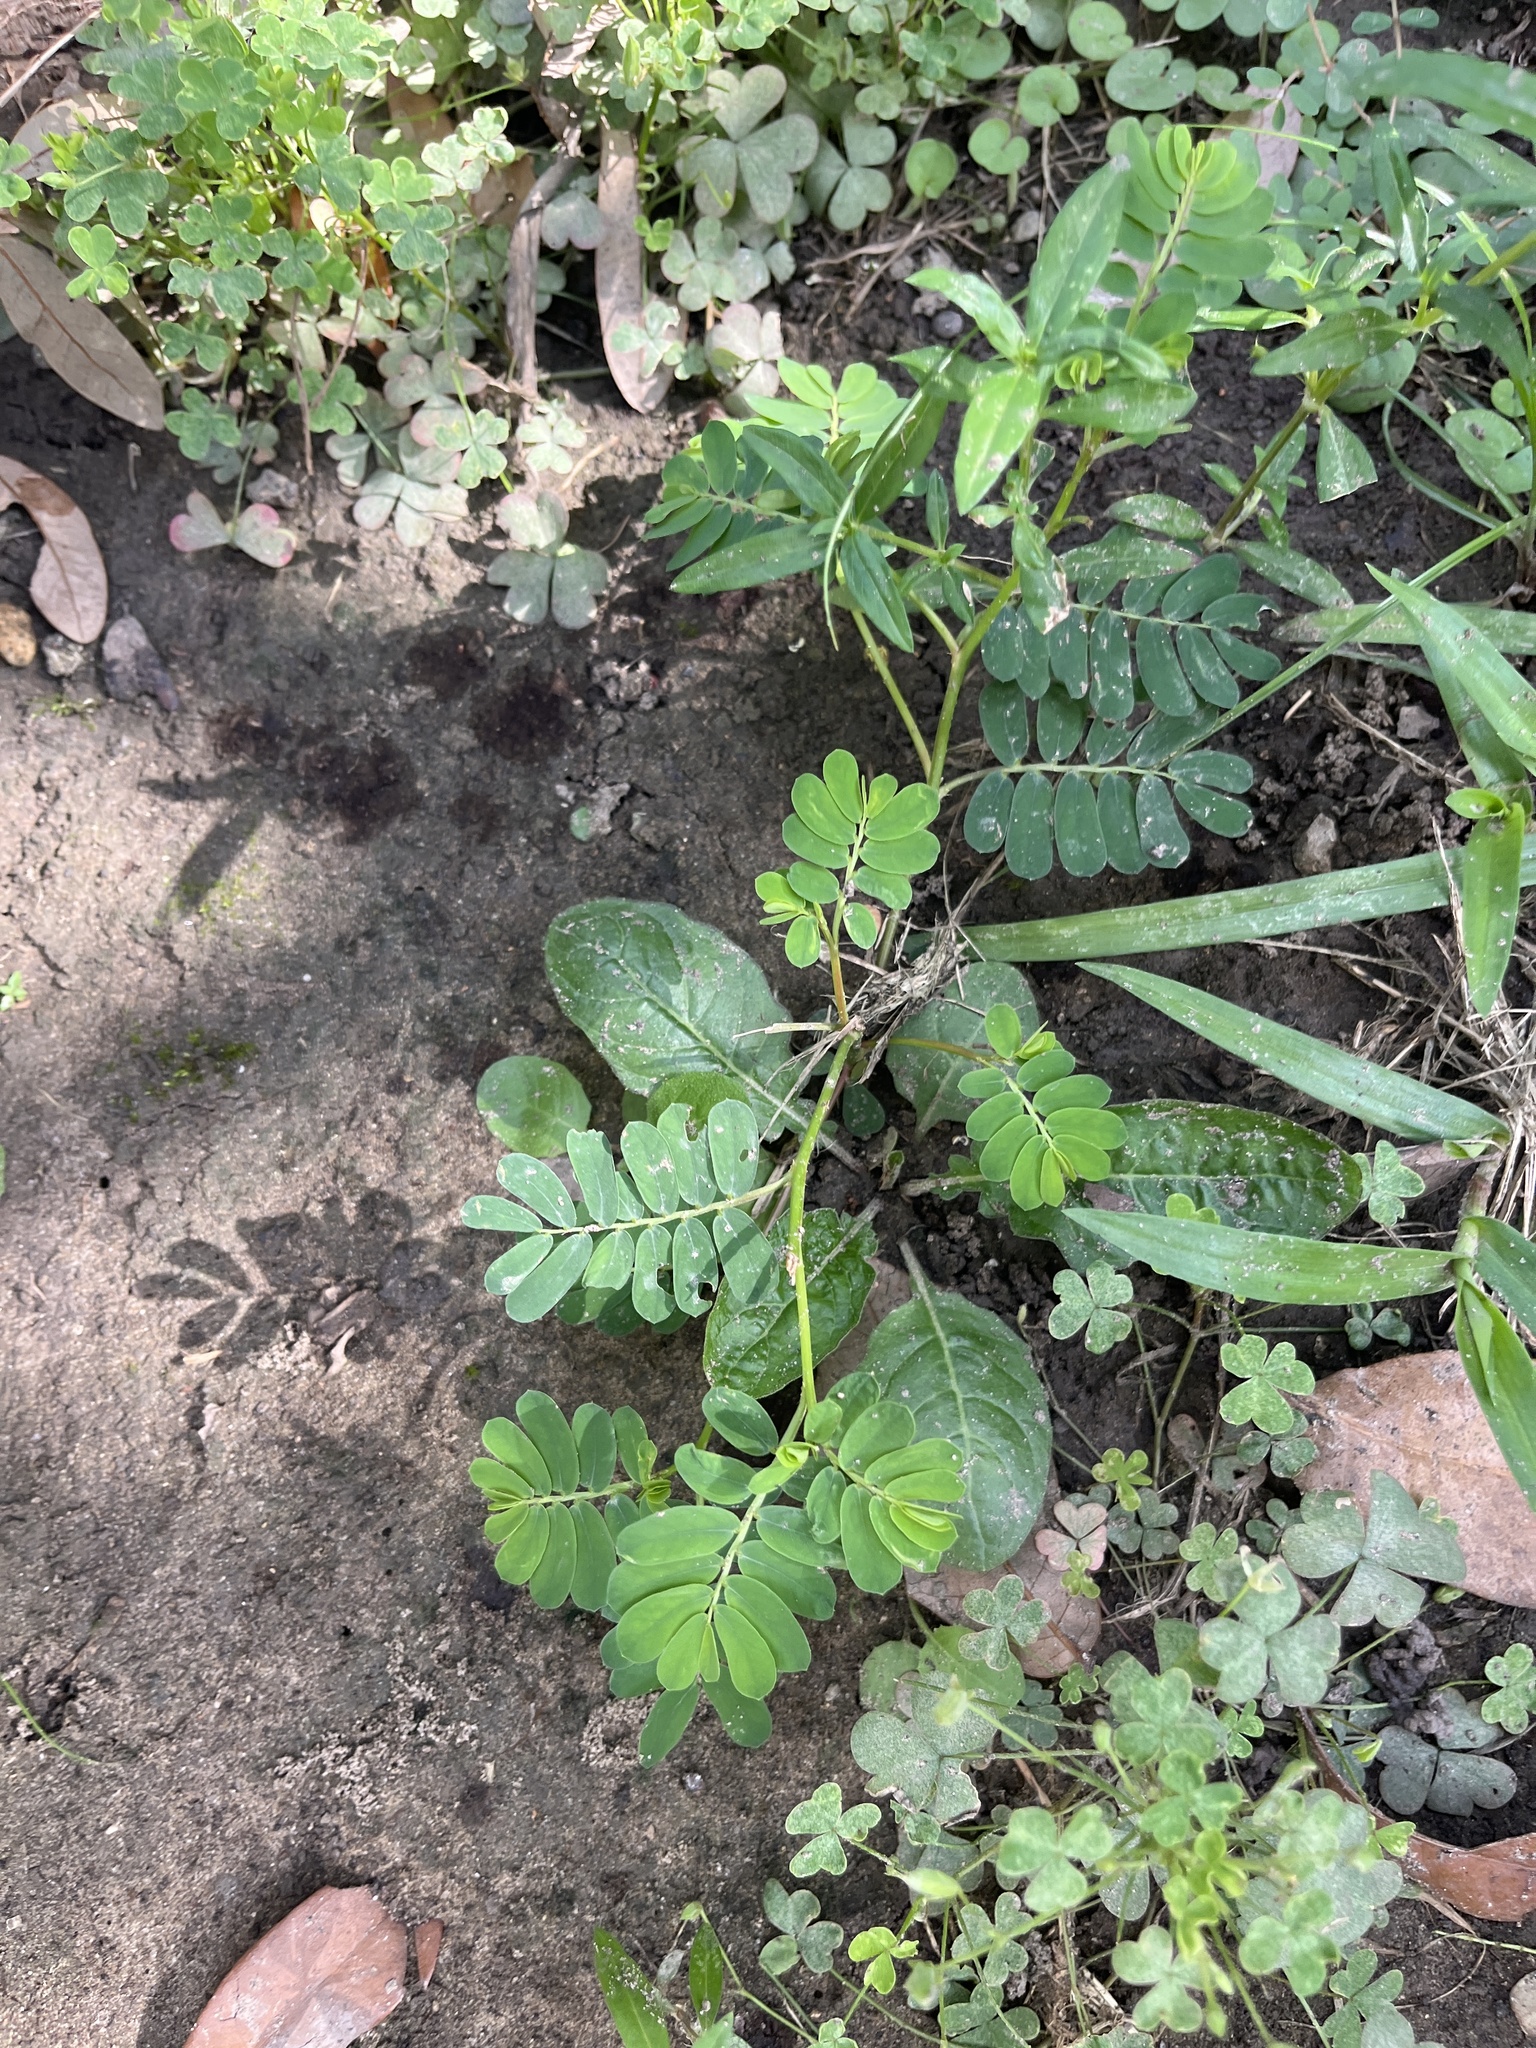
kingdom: Plantae
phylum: Tracheophyta
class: Magnoliopsida
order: Malpighiales
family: Phyllanthaceae
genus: Phyllanthus
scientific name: Phyllanthus urinaria
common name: Chamber bitter
